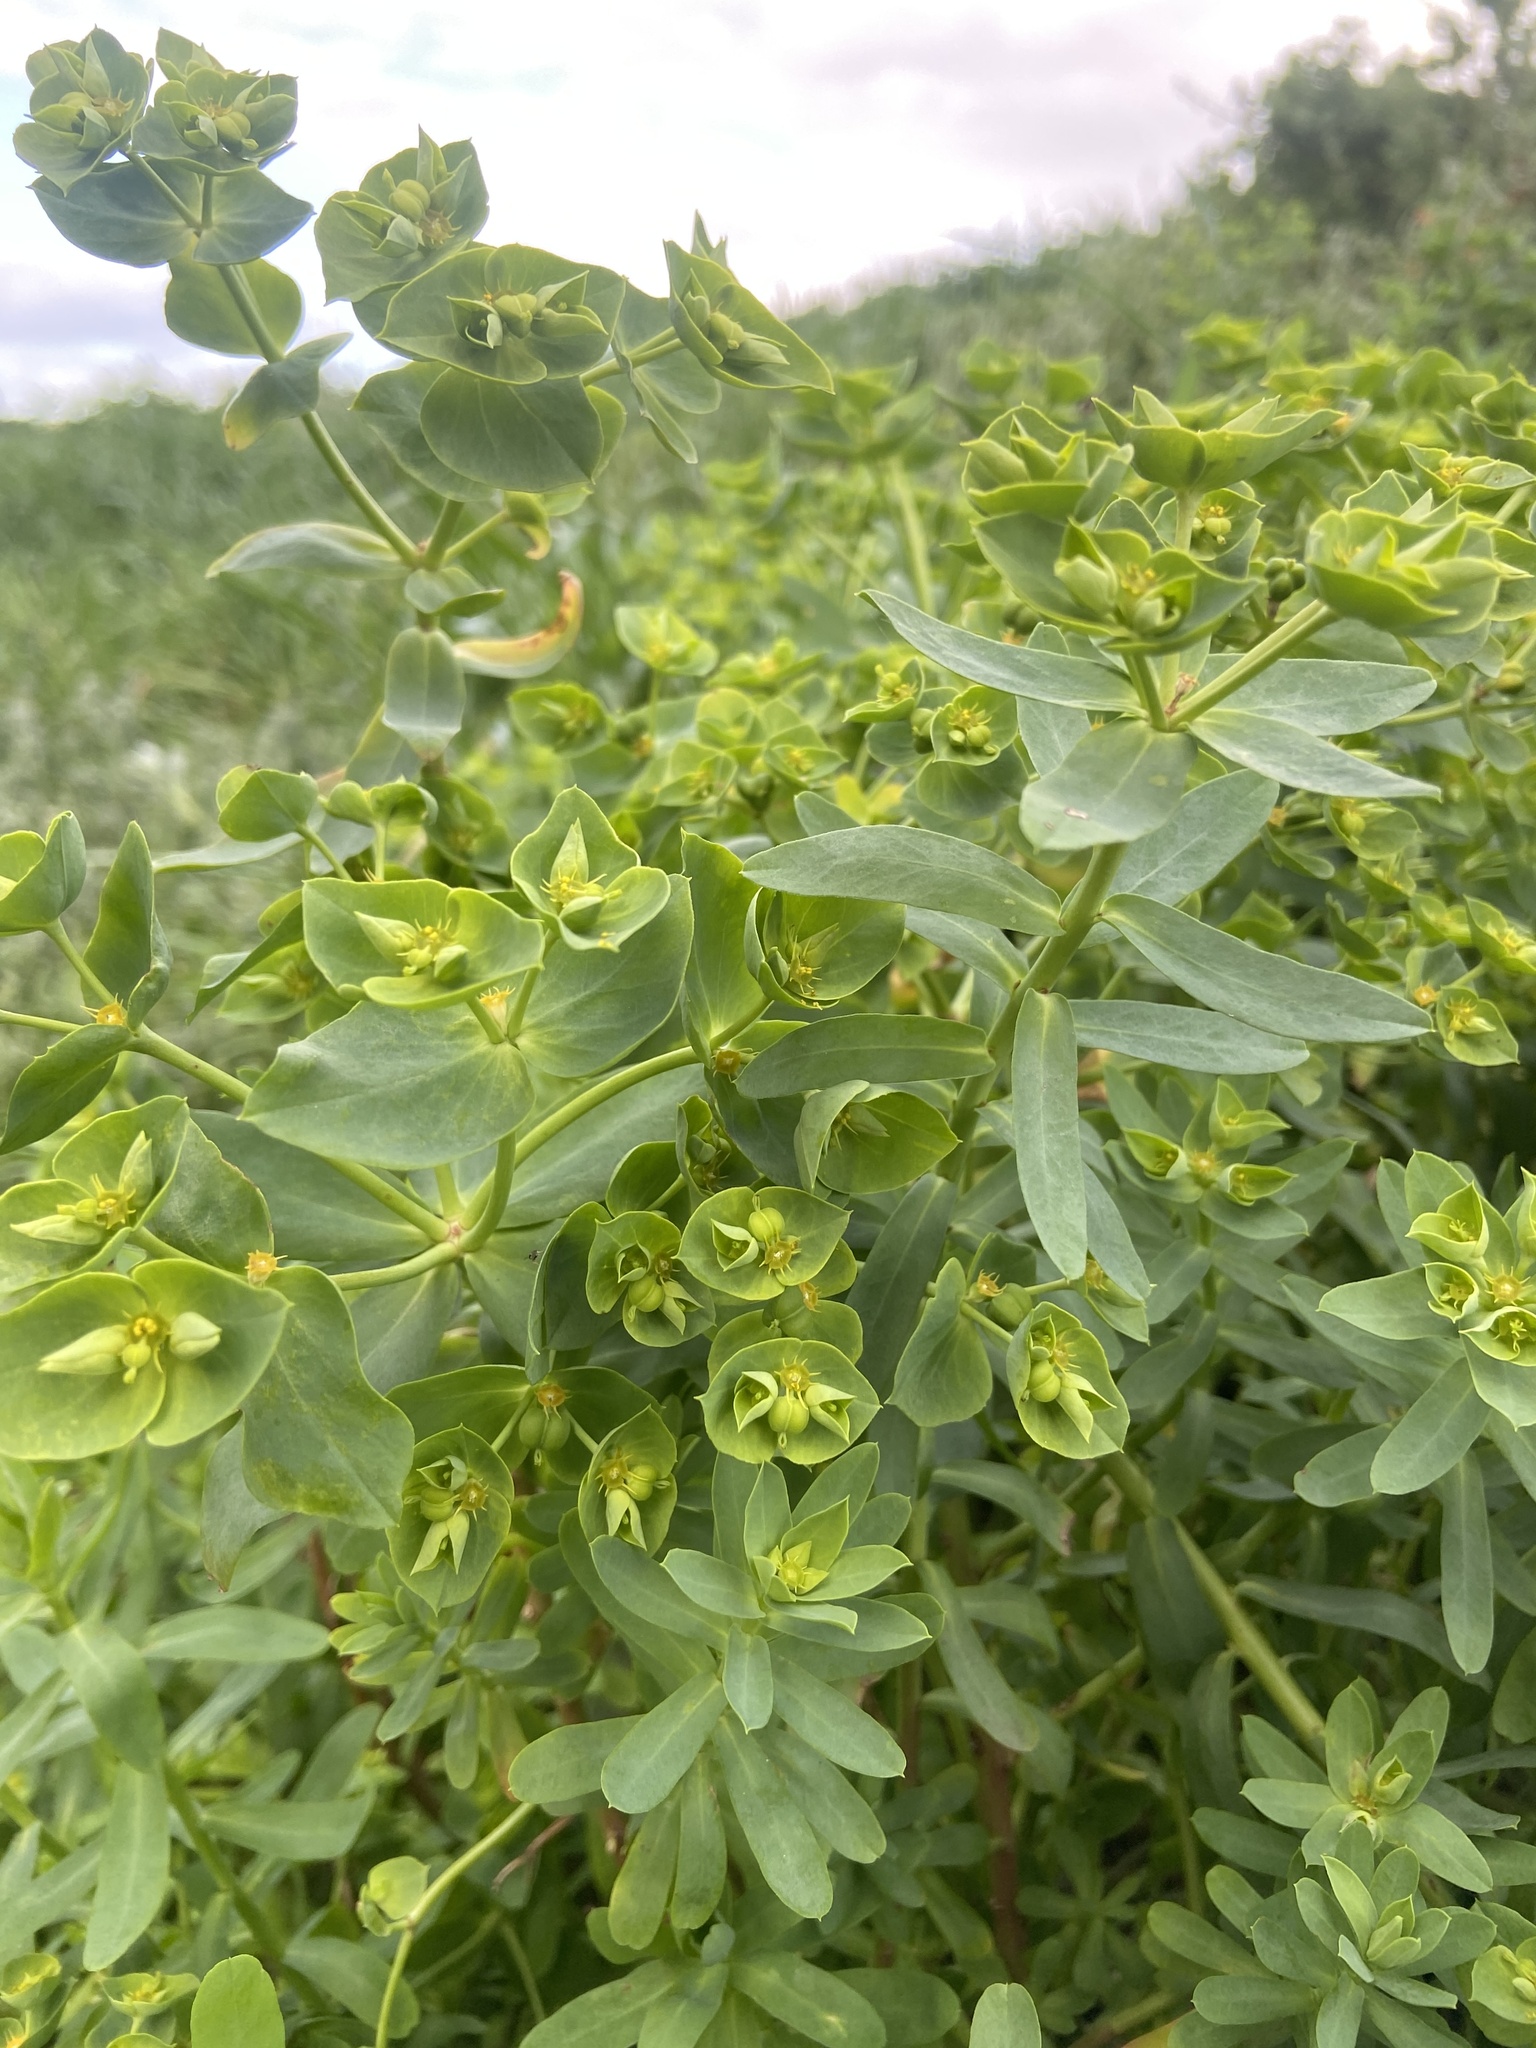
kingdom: Plantae
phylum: Tracheophyta
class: Magnoliopsida
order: Malpighiales
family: Euphorbiaceae
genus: Euphorbia
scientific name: Euphorbia terracina
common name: Geraldton carnation weed
